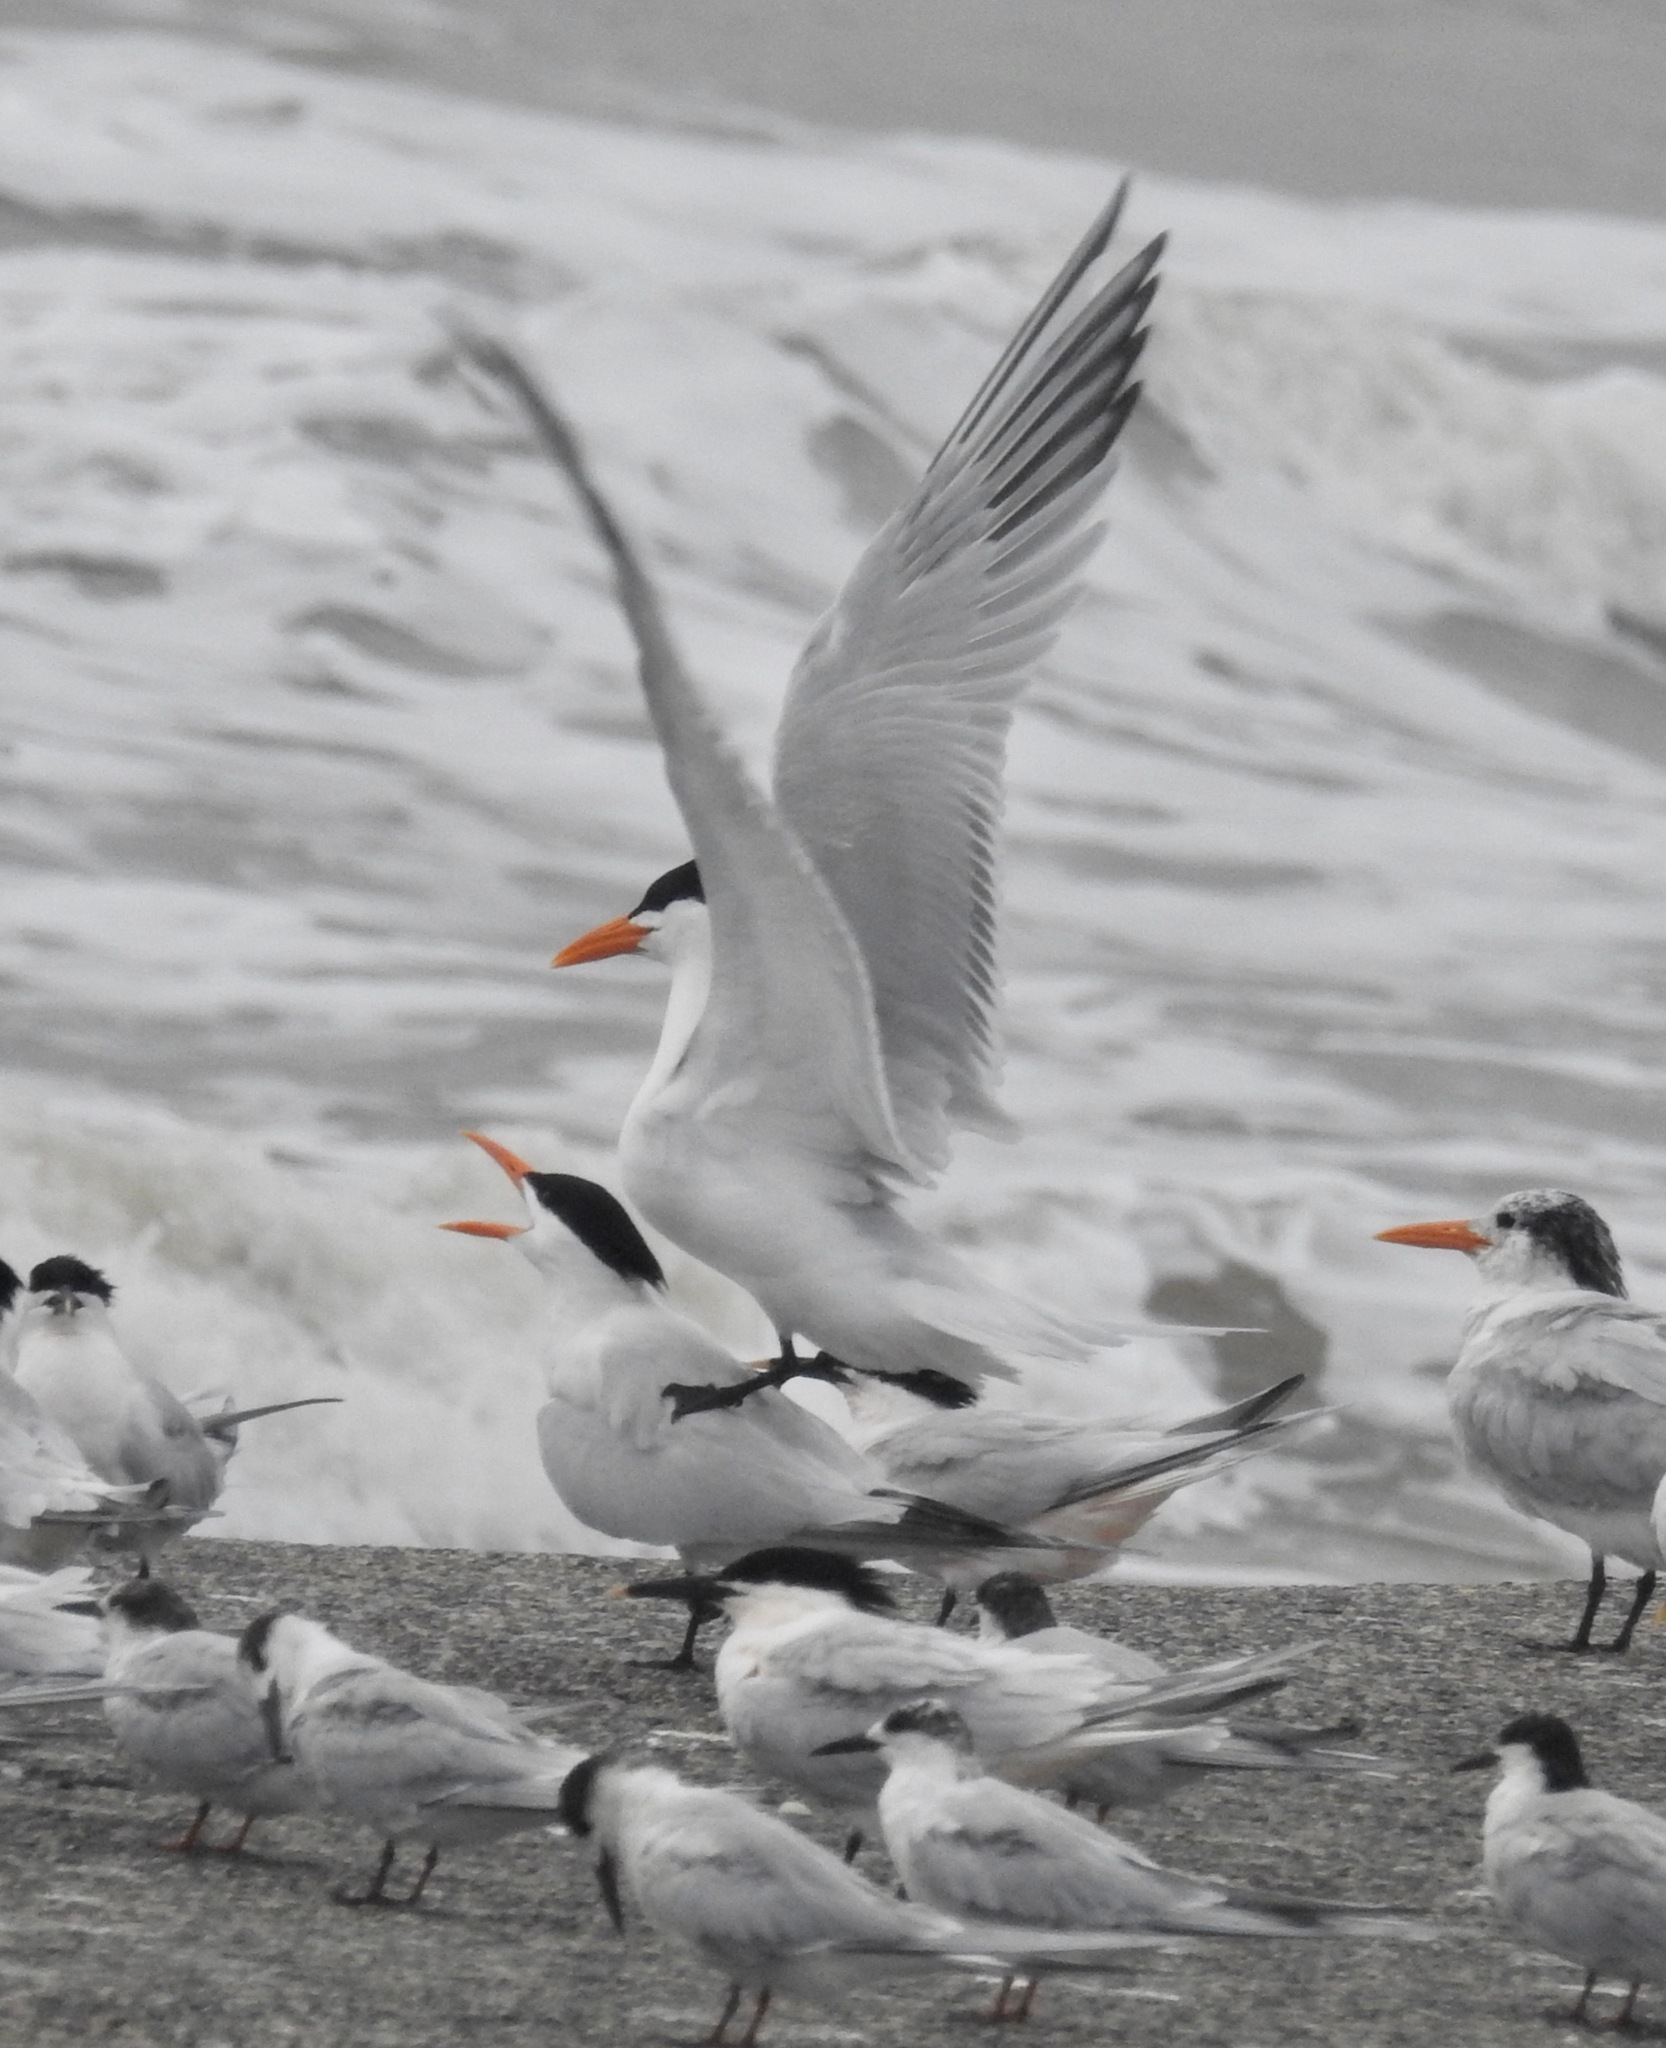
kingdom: Animalia
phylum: Chordata
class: Aves
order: Charadriiformes
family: Laridae
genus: Thalasseus
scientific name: Thalasseus maximus
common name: Royal tern
